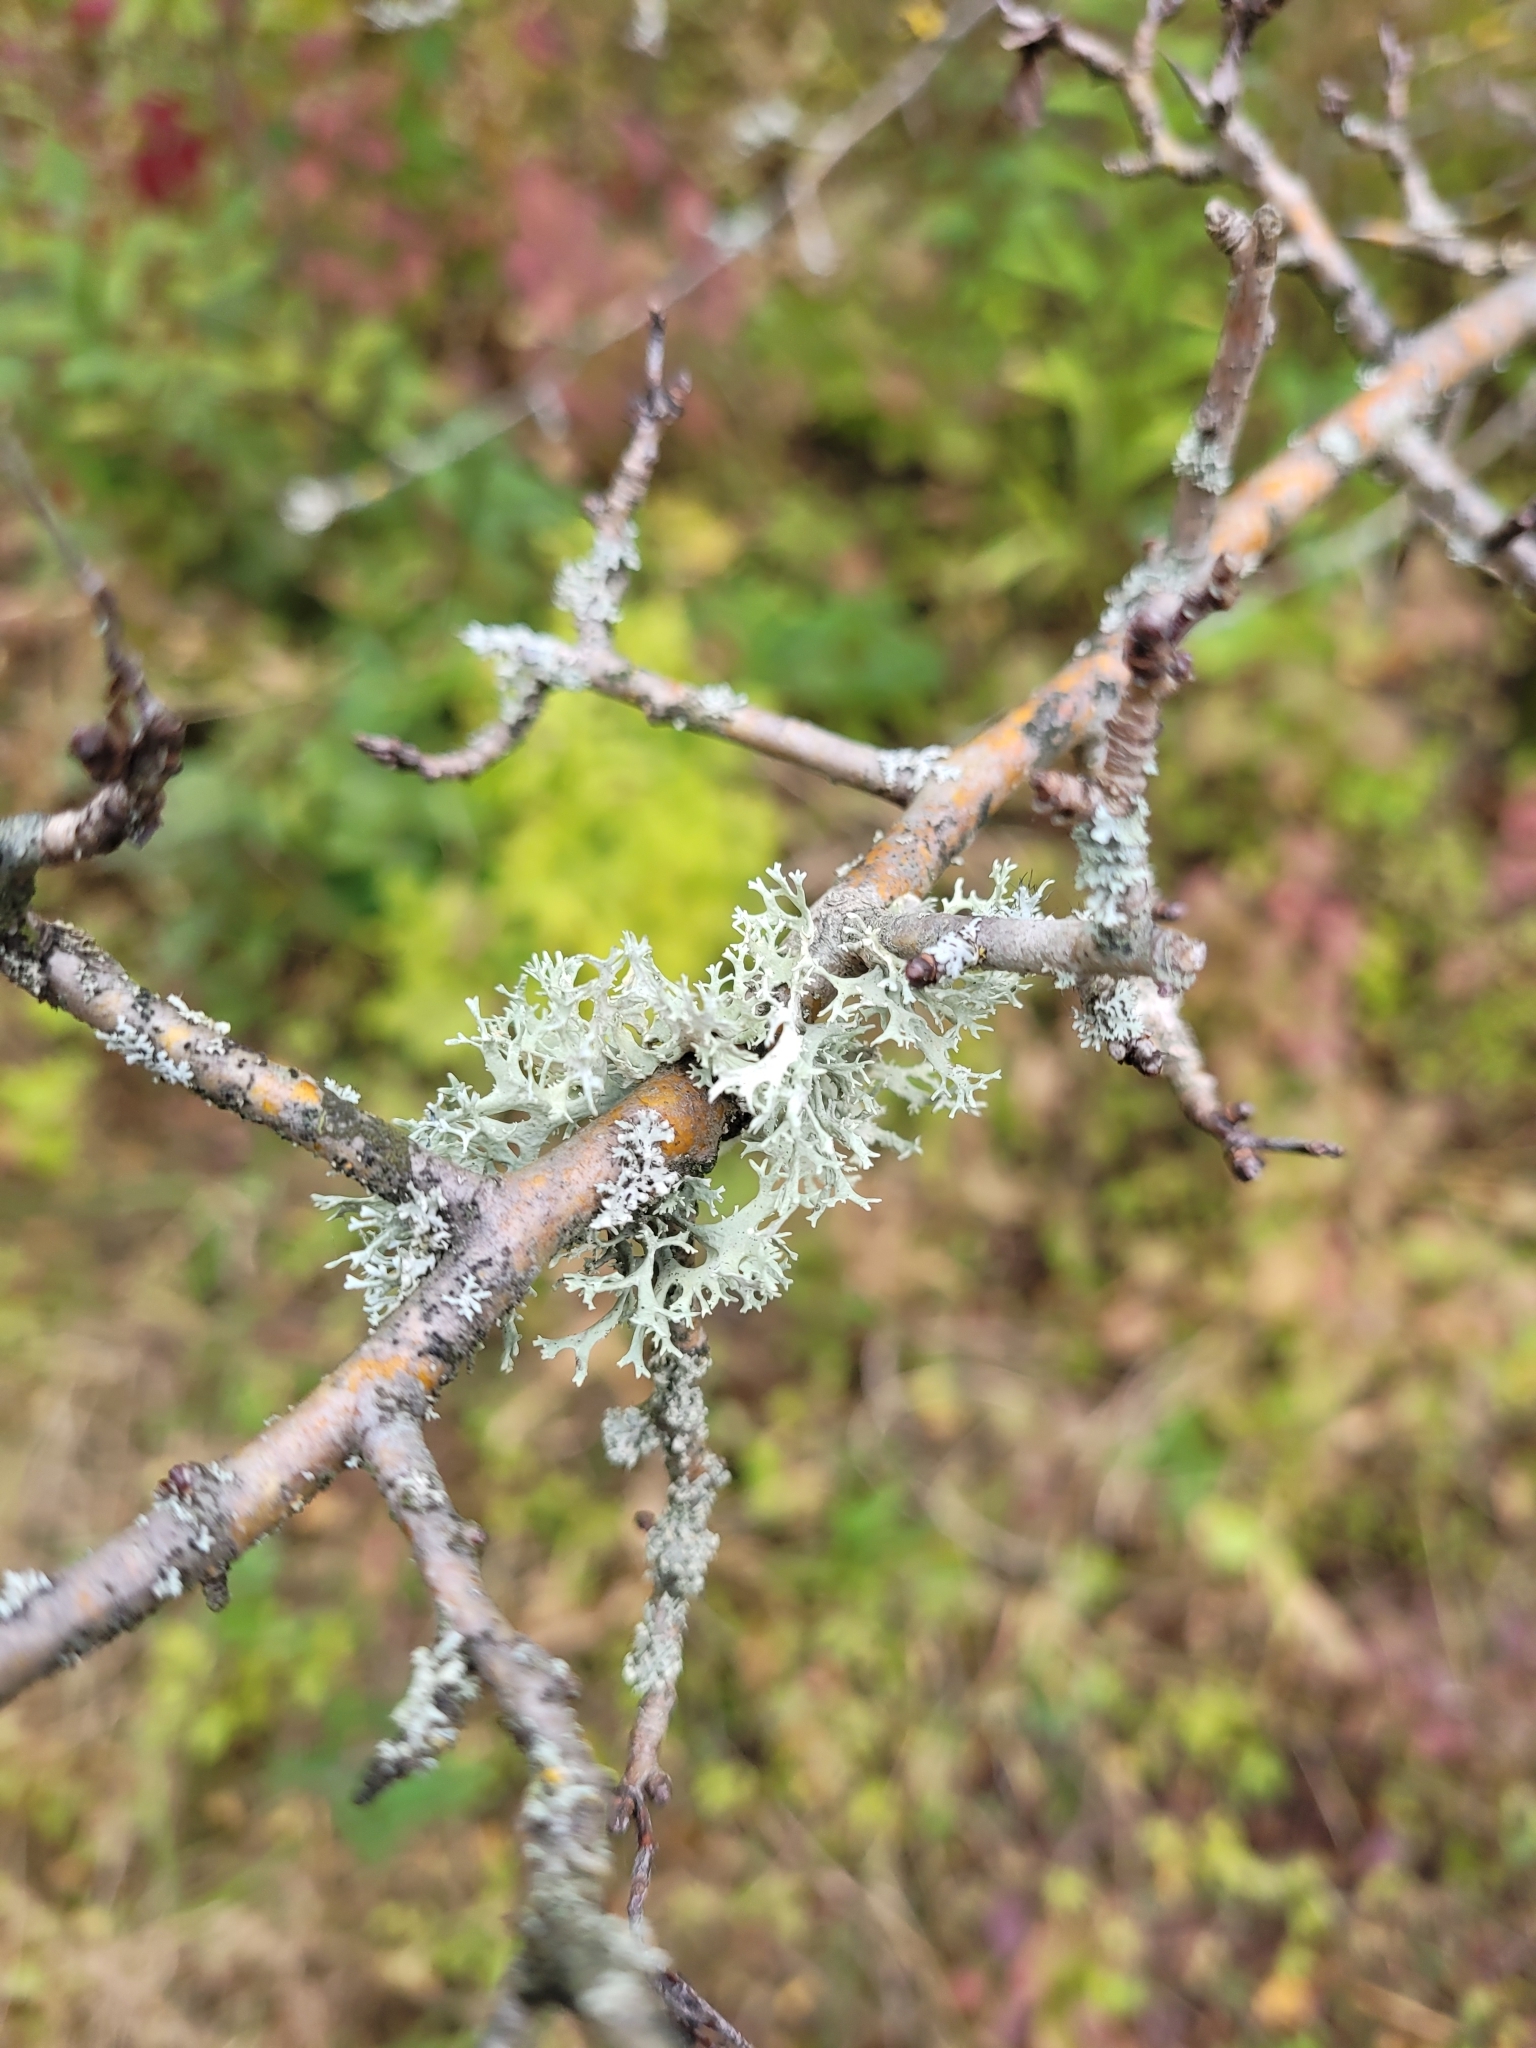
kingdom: Fungi
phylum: Ascomycota
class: Lecanoromycetes
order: Lecanorales
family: Parmeliaceae
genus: Evernia
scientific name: Evernia prunastri
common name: Oak moss
